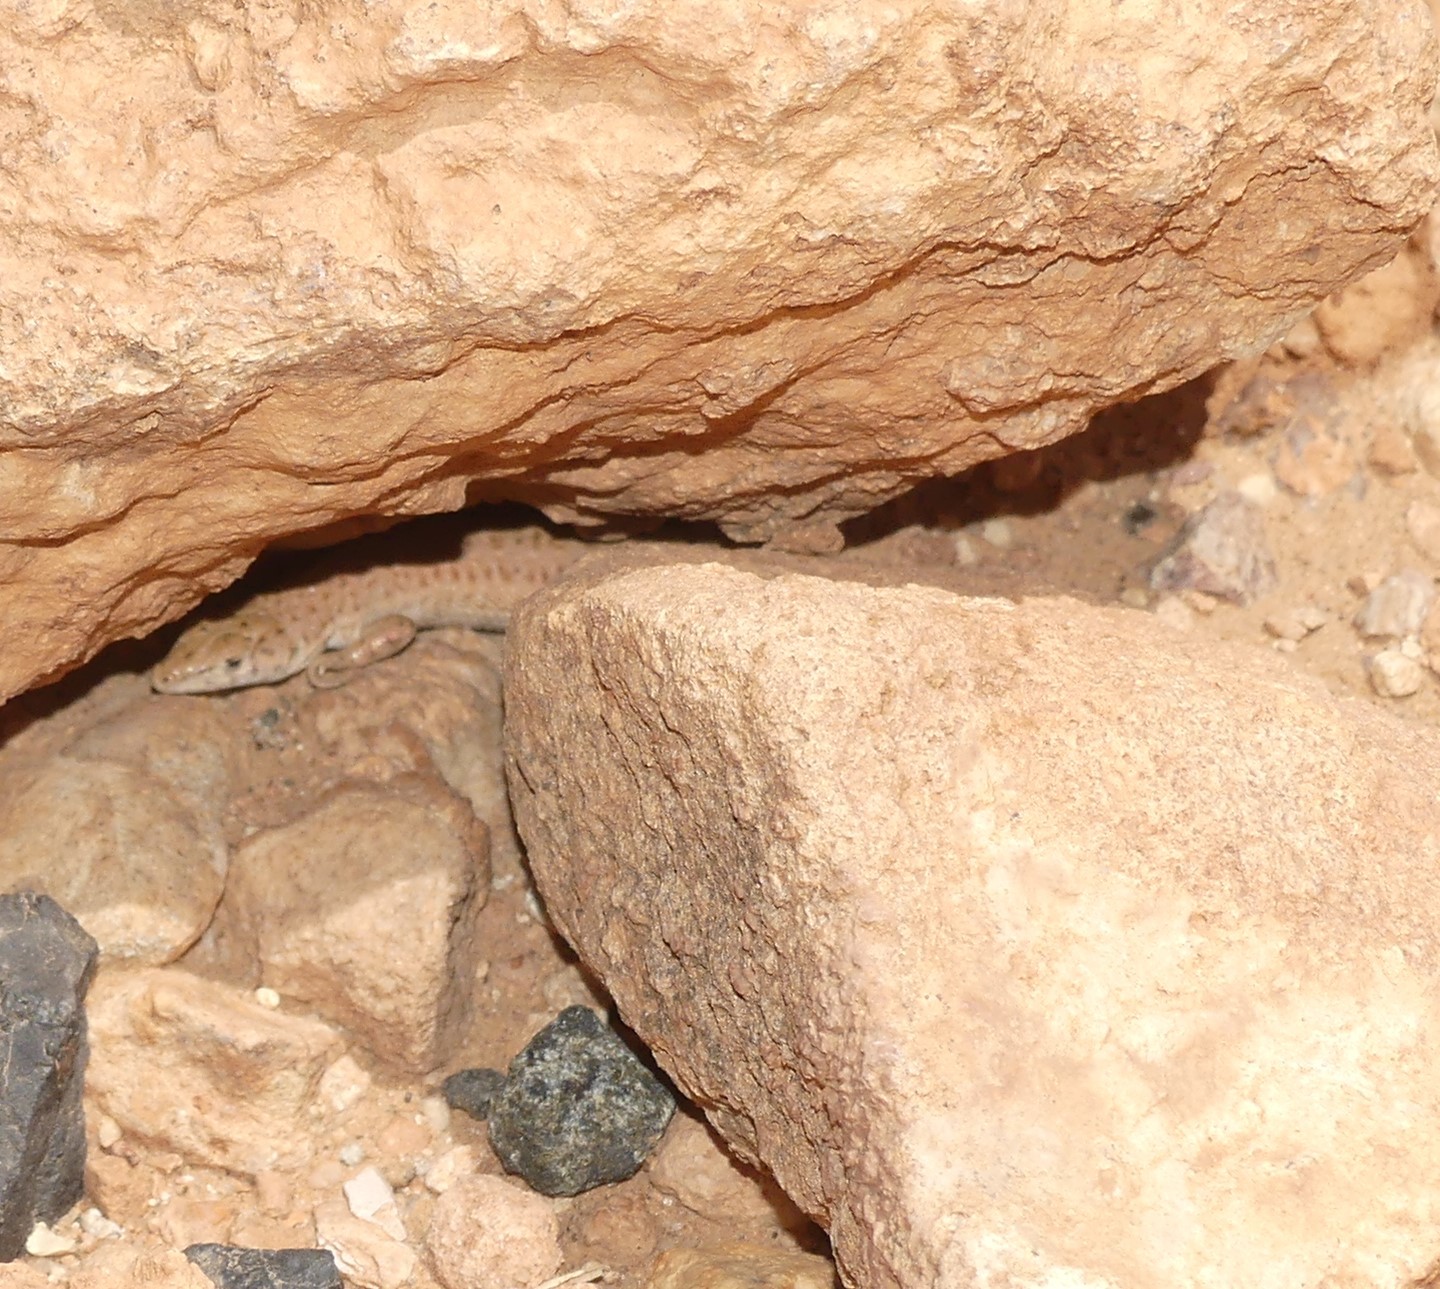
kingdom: Animalia
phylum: Chordata
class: Squamata
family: Lacertidae
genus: Mesalina
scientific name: Mesalina guttulata
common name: Desert lacerta
